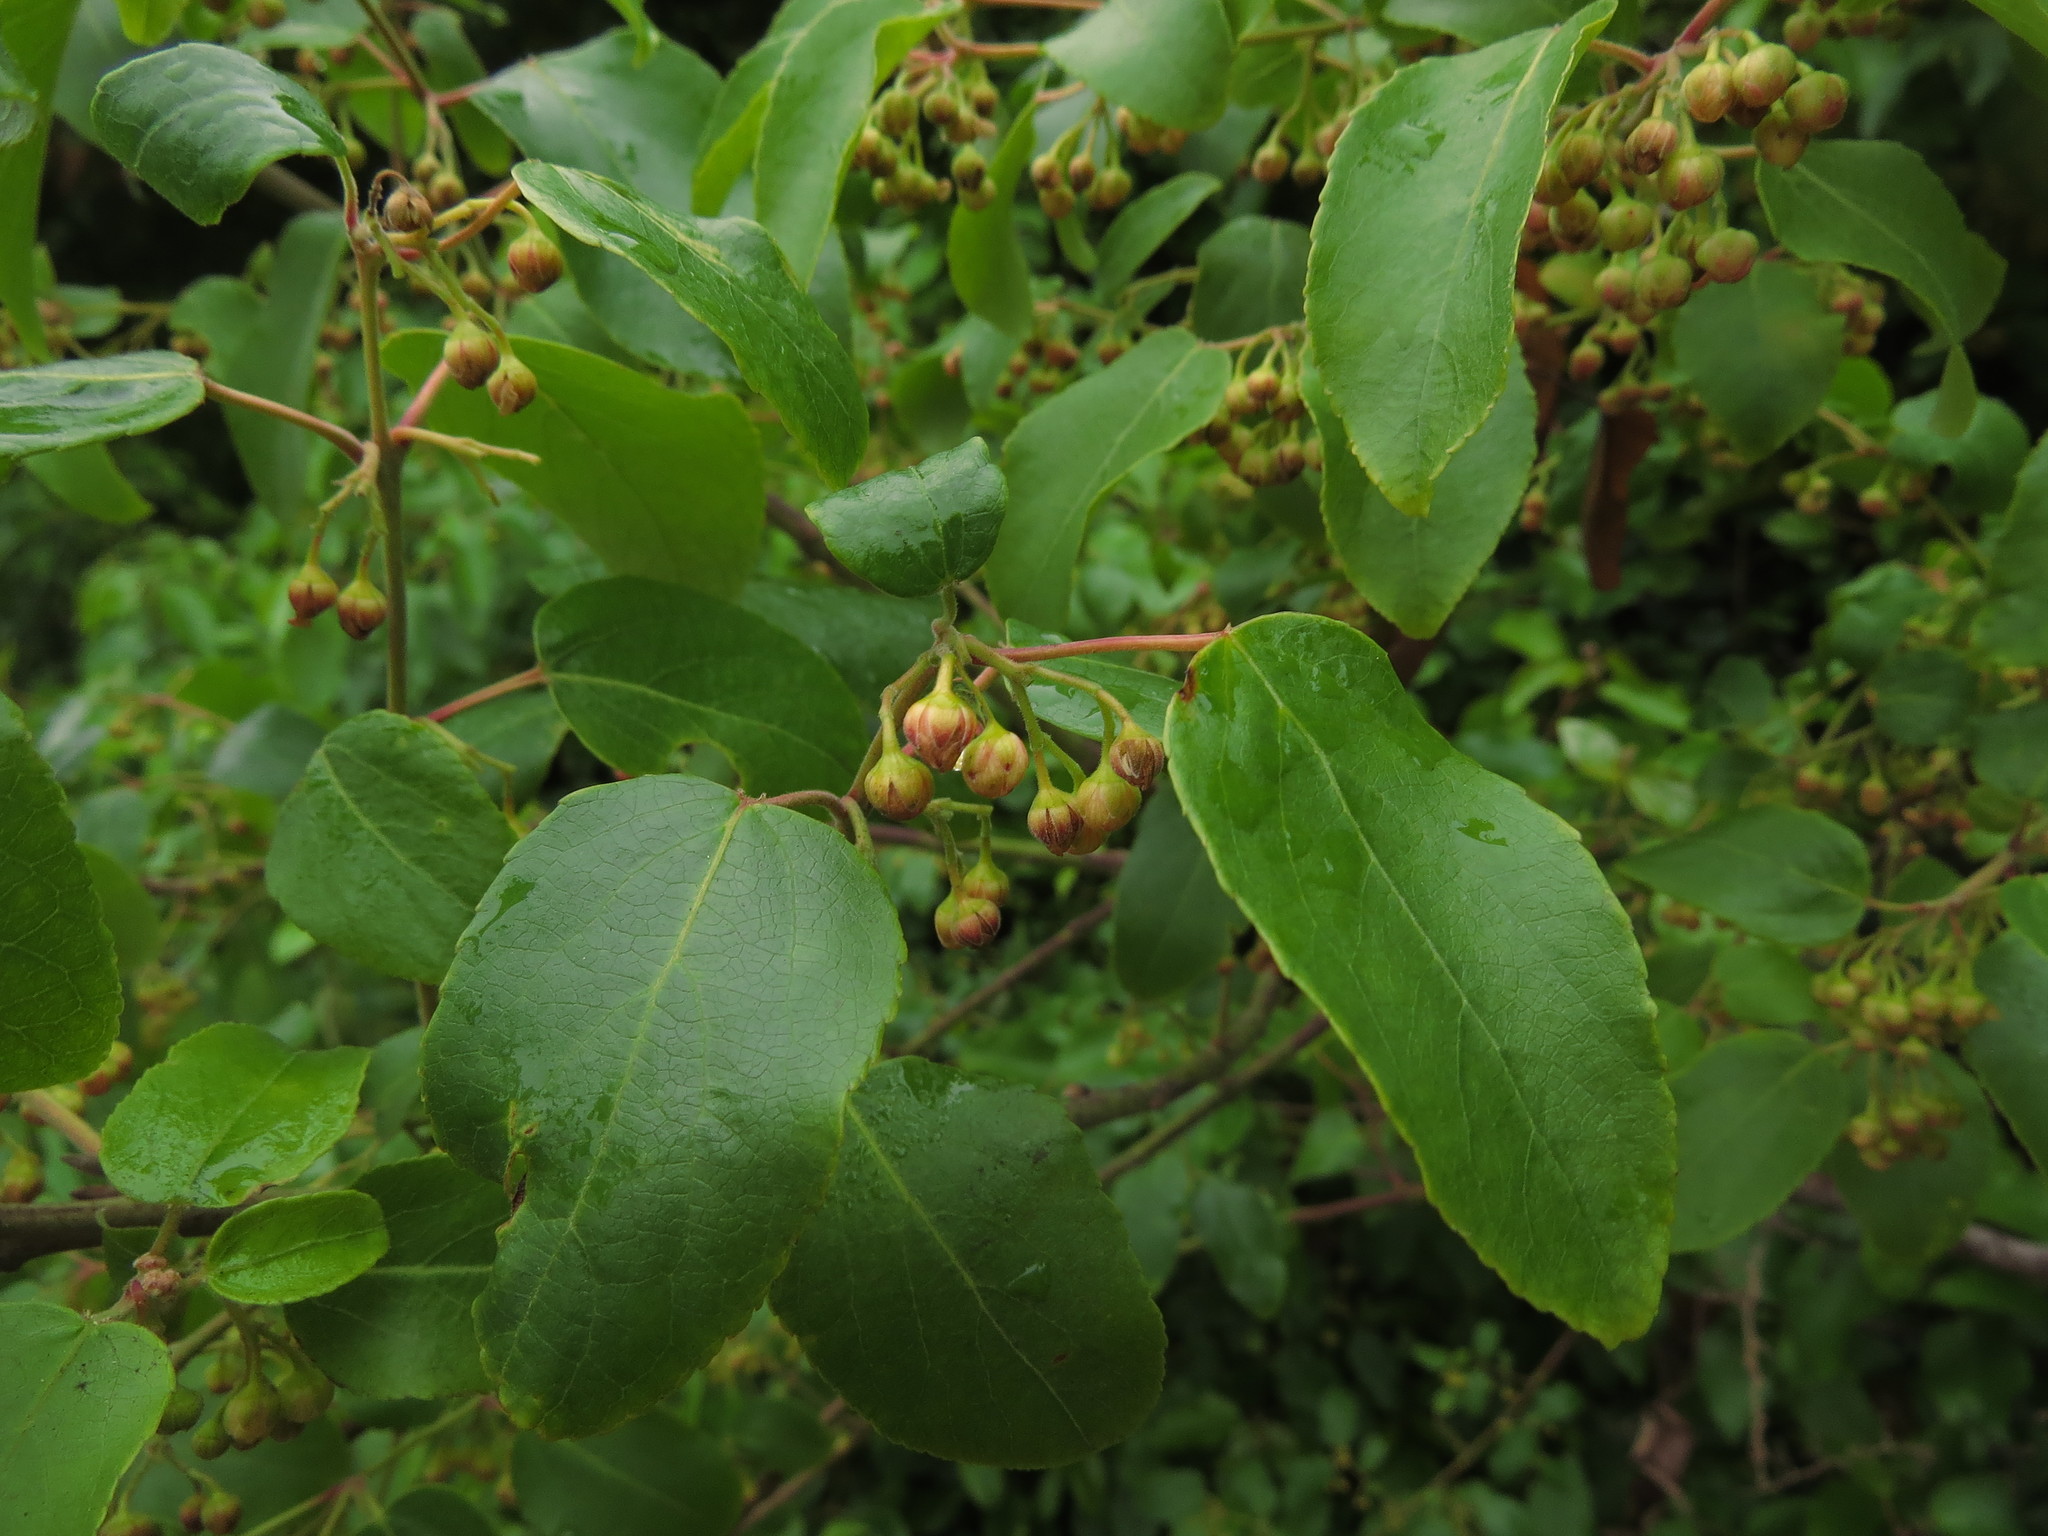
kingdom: Plantae
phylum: Tracheophyta
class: Magnoliopsida
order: Oxalidales
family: Elaeocarpaceae
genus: Aristotelia
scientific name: Aristotelia chilensis
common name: Maquei
